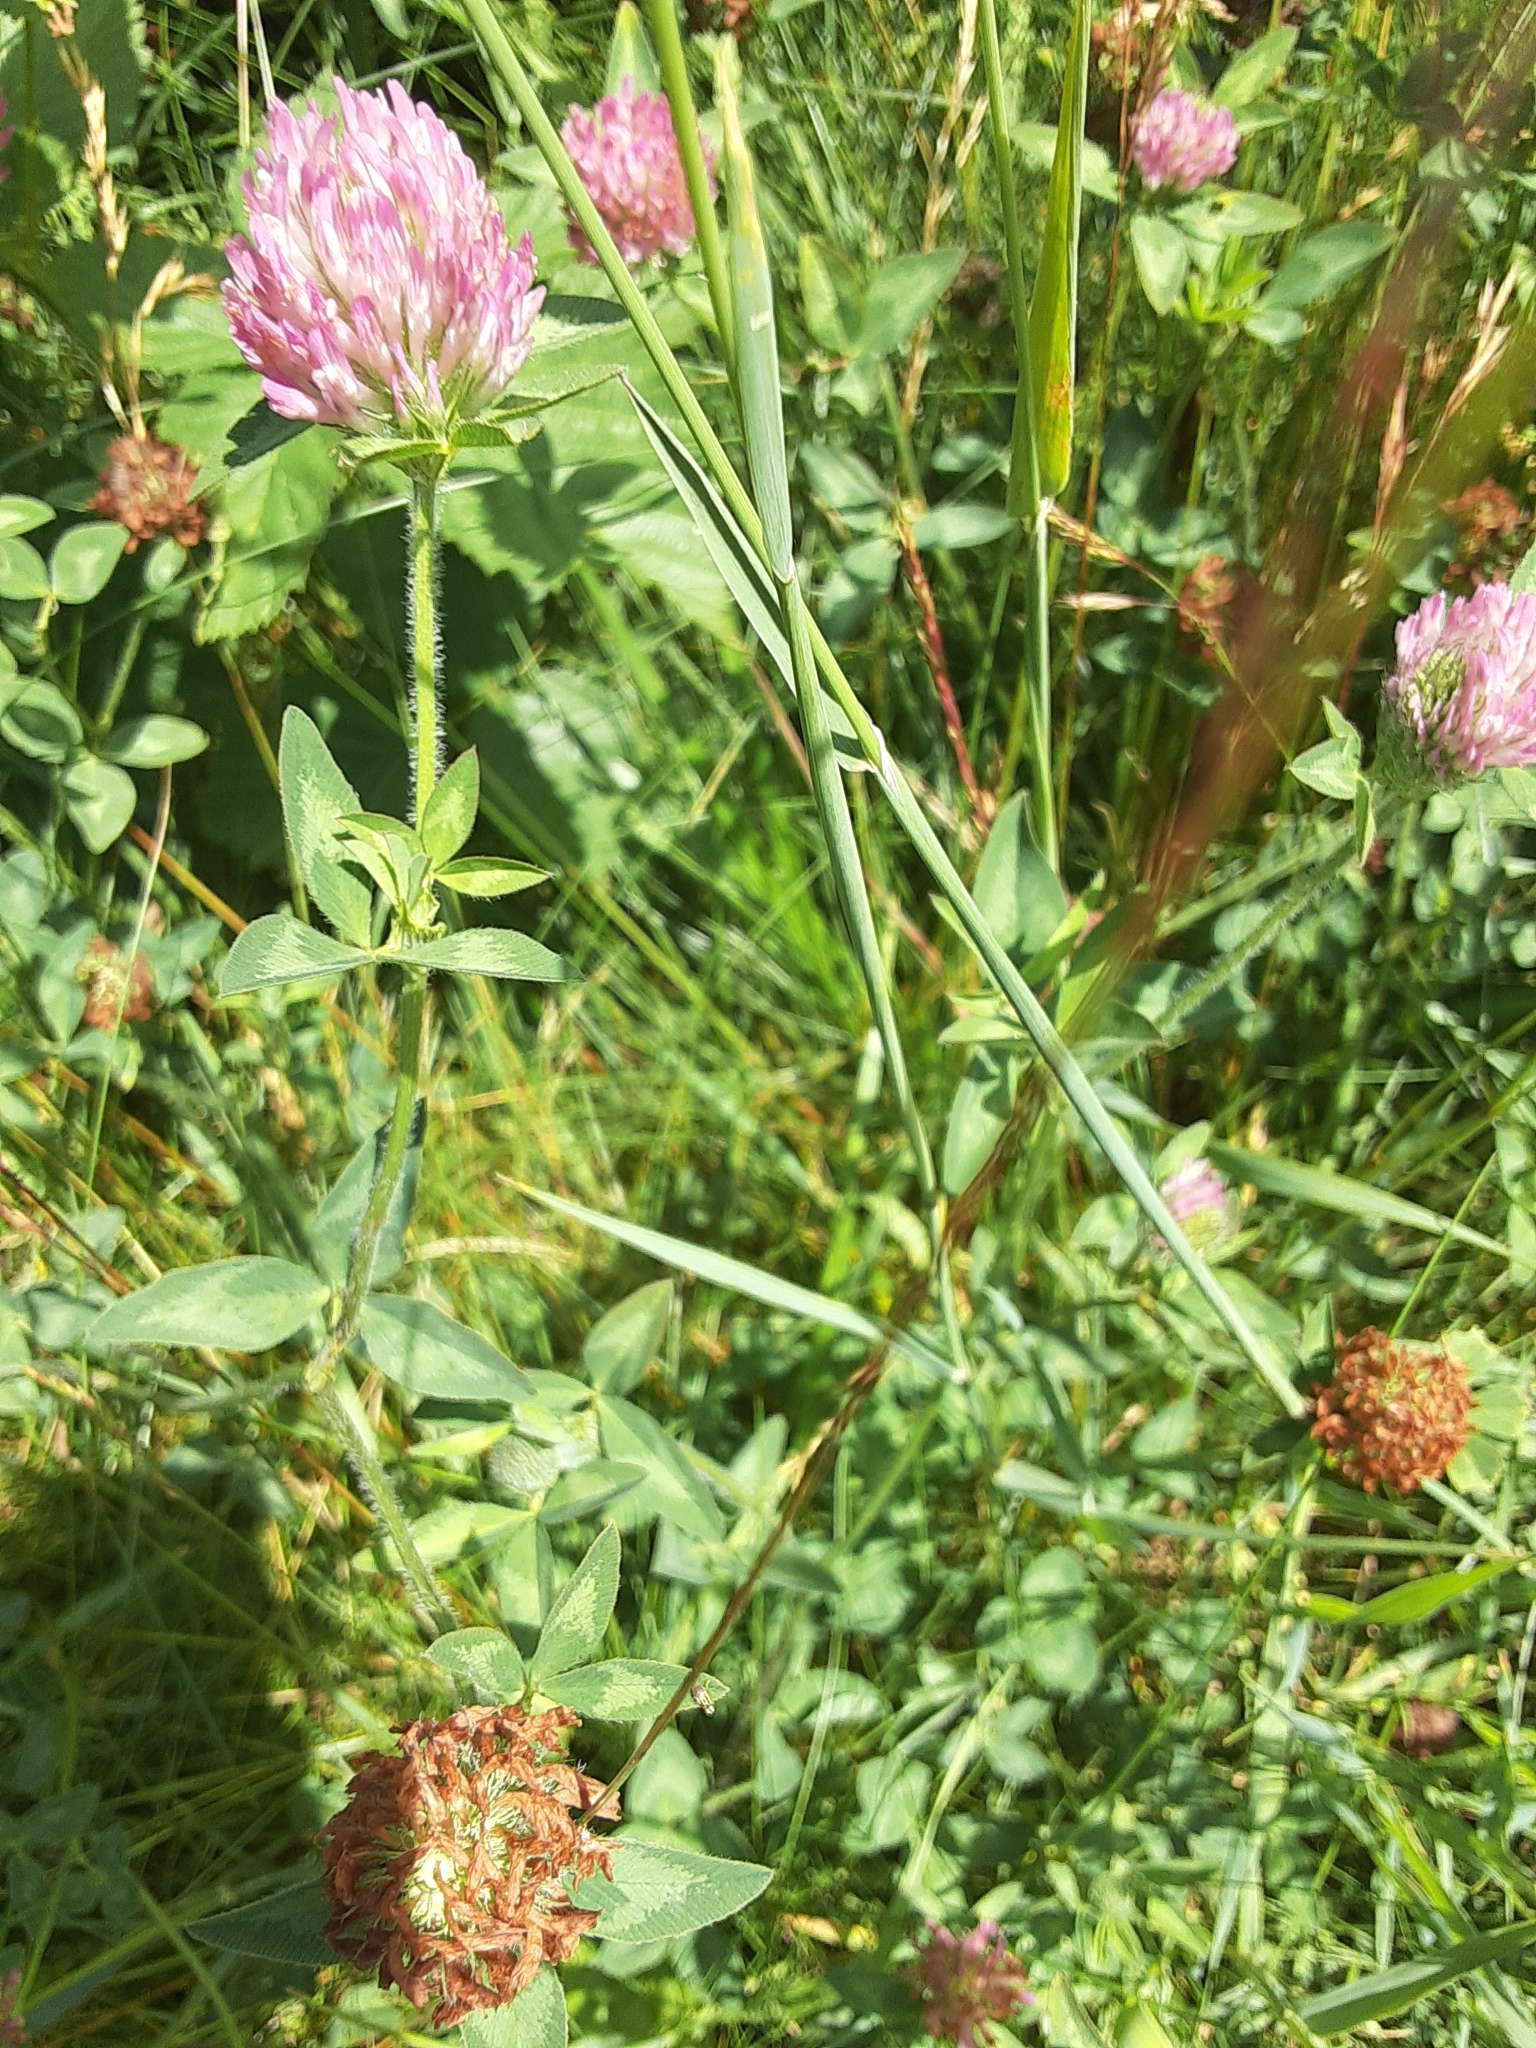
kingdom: Plantae
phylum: Tracheophyta
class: Magnoliopsida
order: Fabales
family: Fabaceae
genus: Trifolium
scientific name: Trifolium pratense
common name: Red clover
